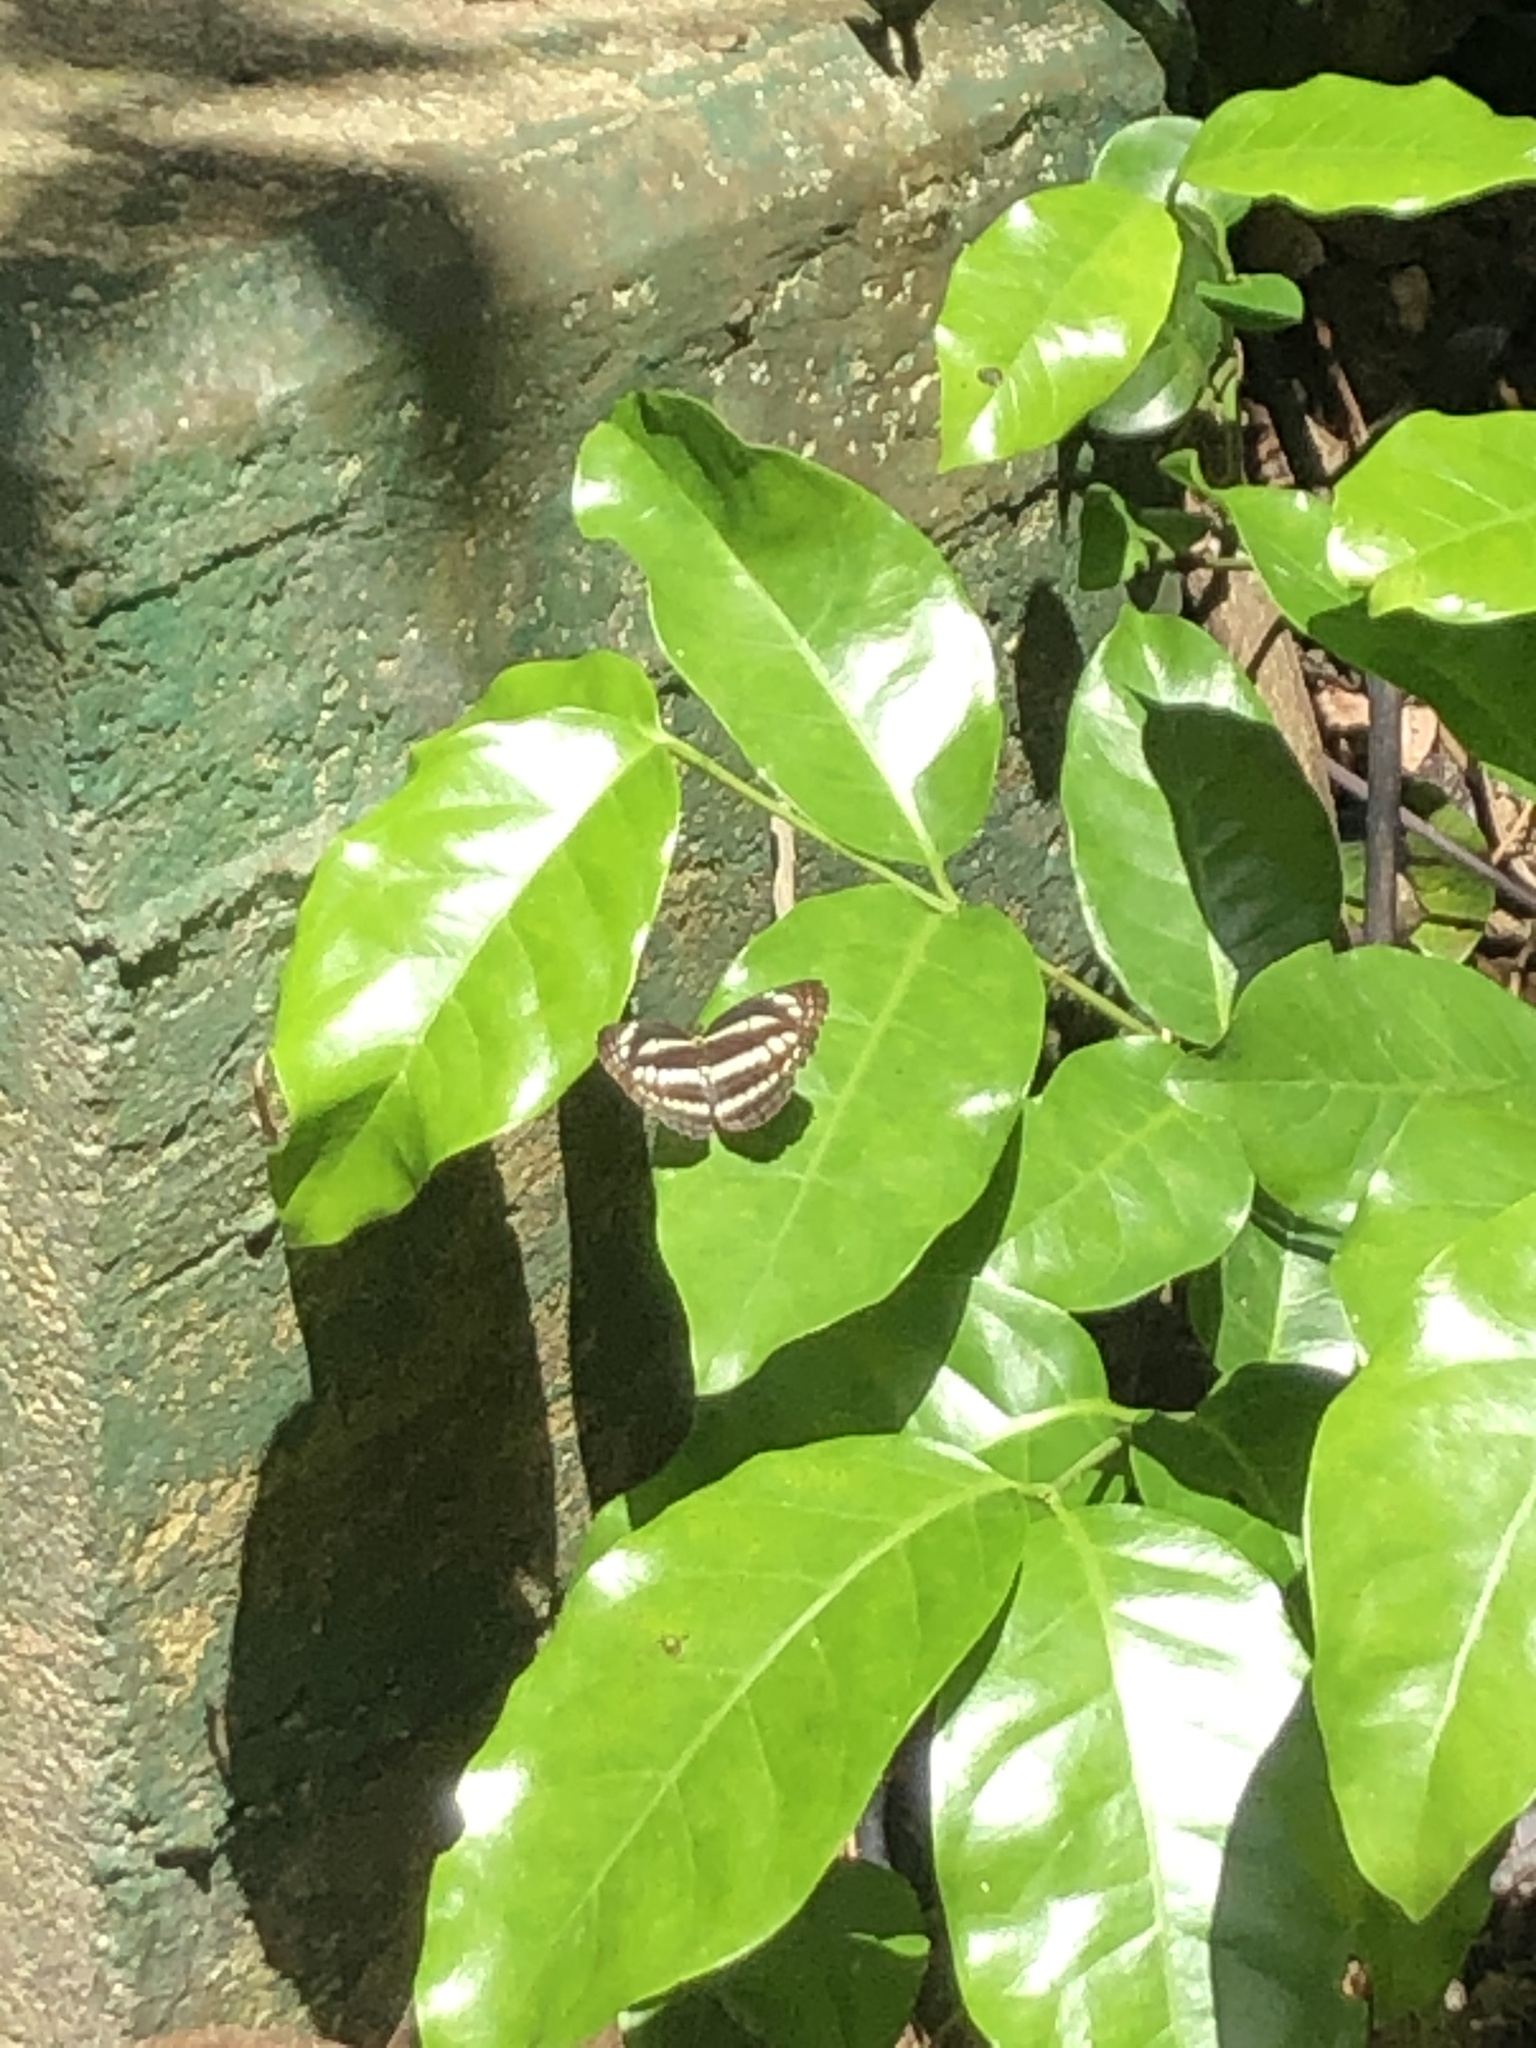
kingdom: Animalia
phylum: Arthropoda
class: Insecta
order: Lepidoptera
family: Nymphalidae
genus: Neptis
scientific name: Neptis clinia
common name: Southern sullied sailer
